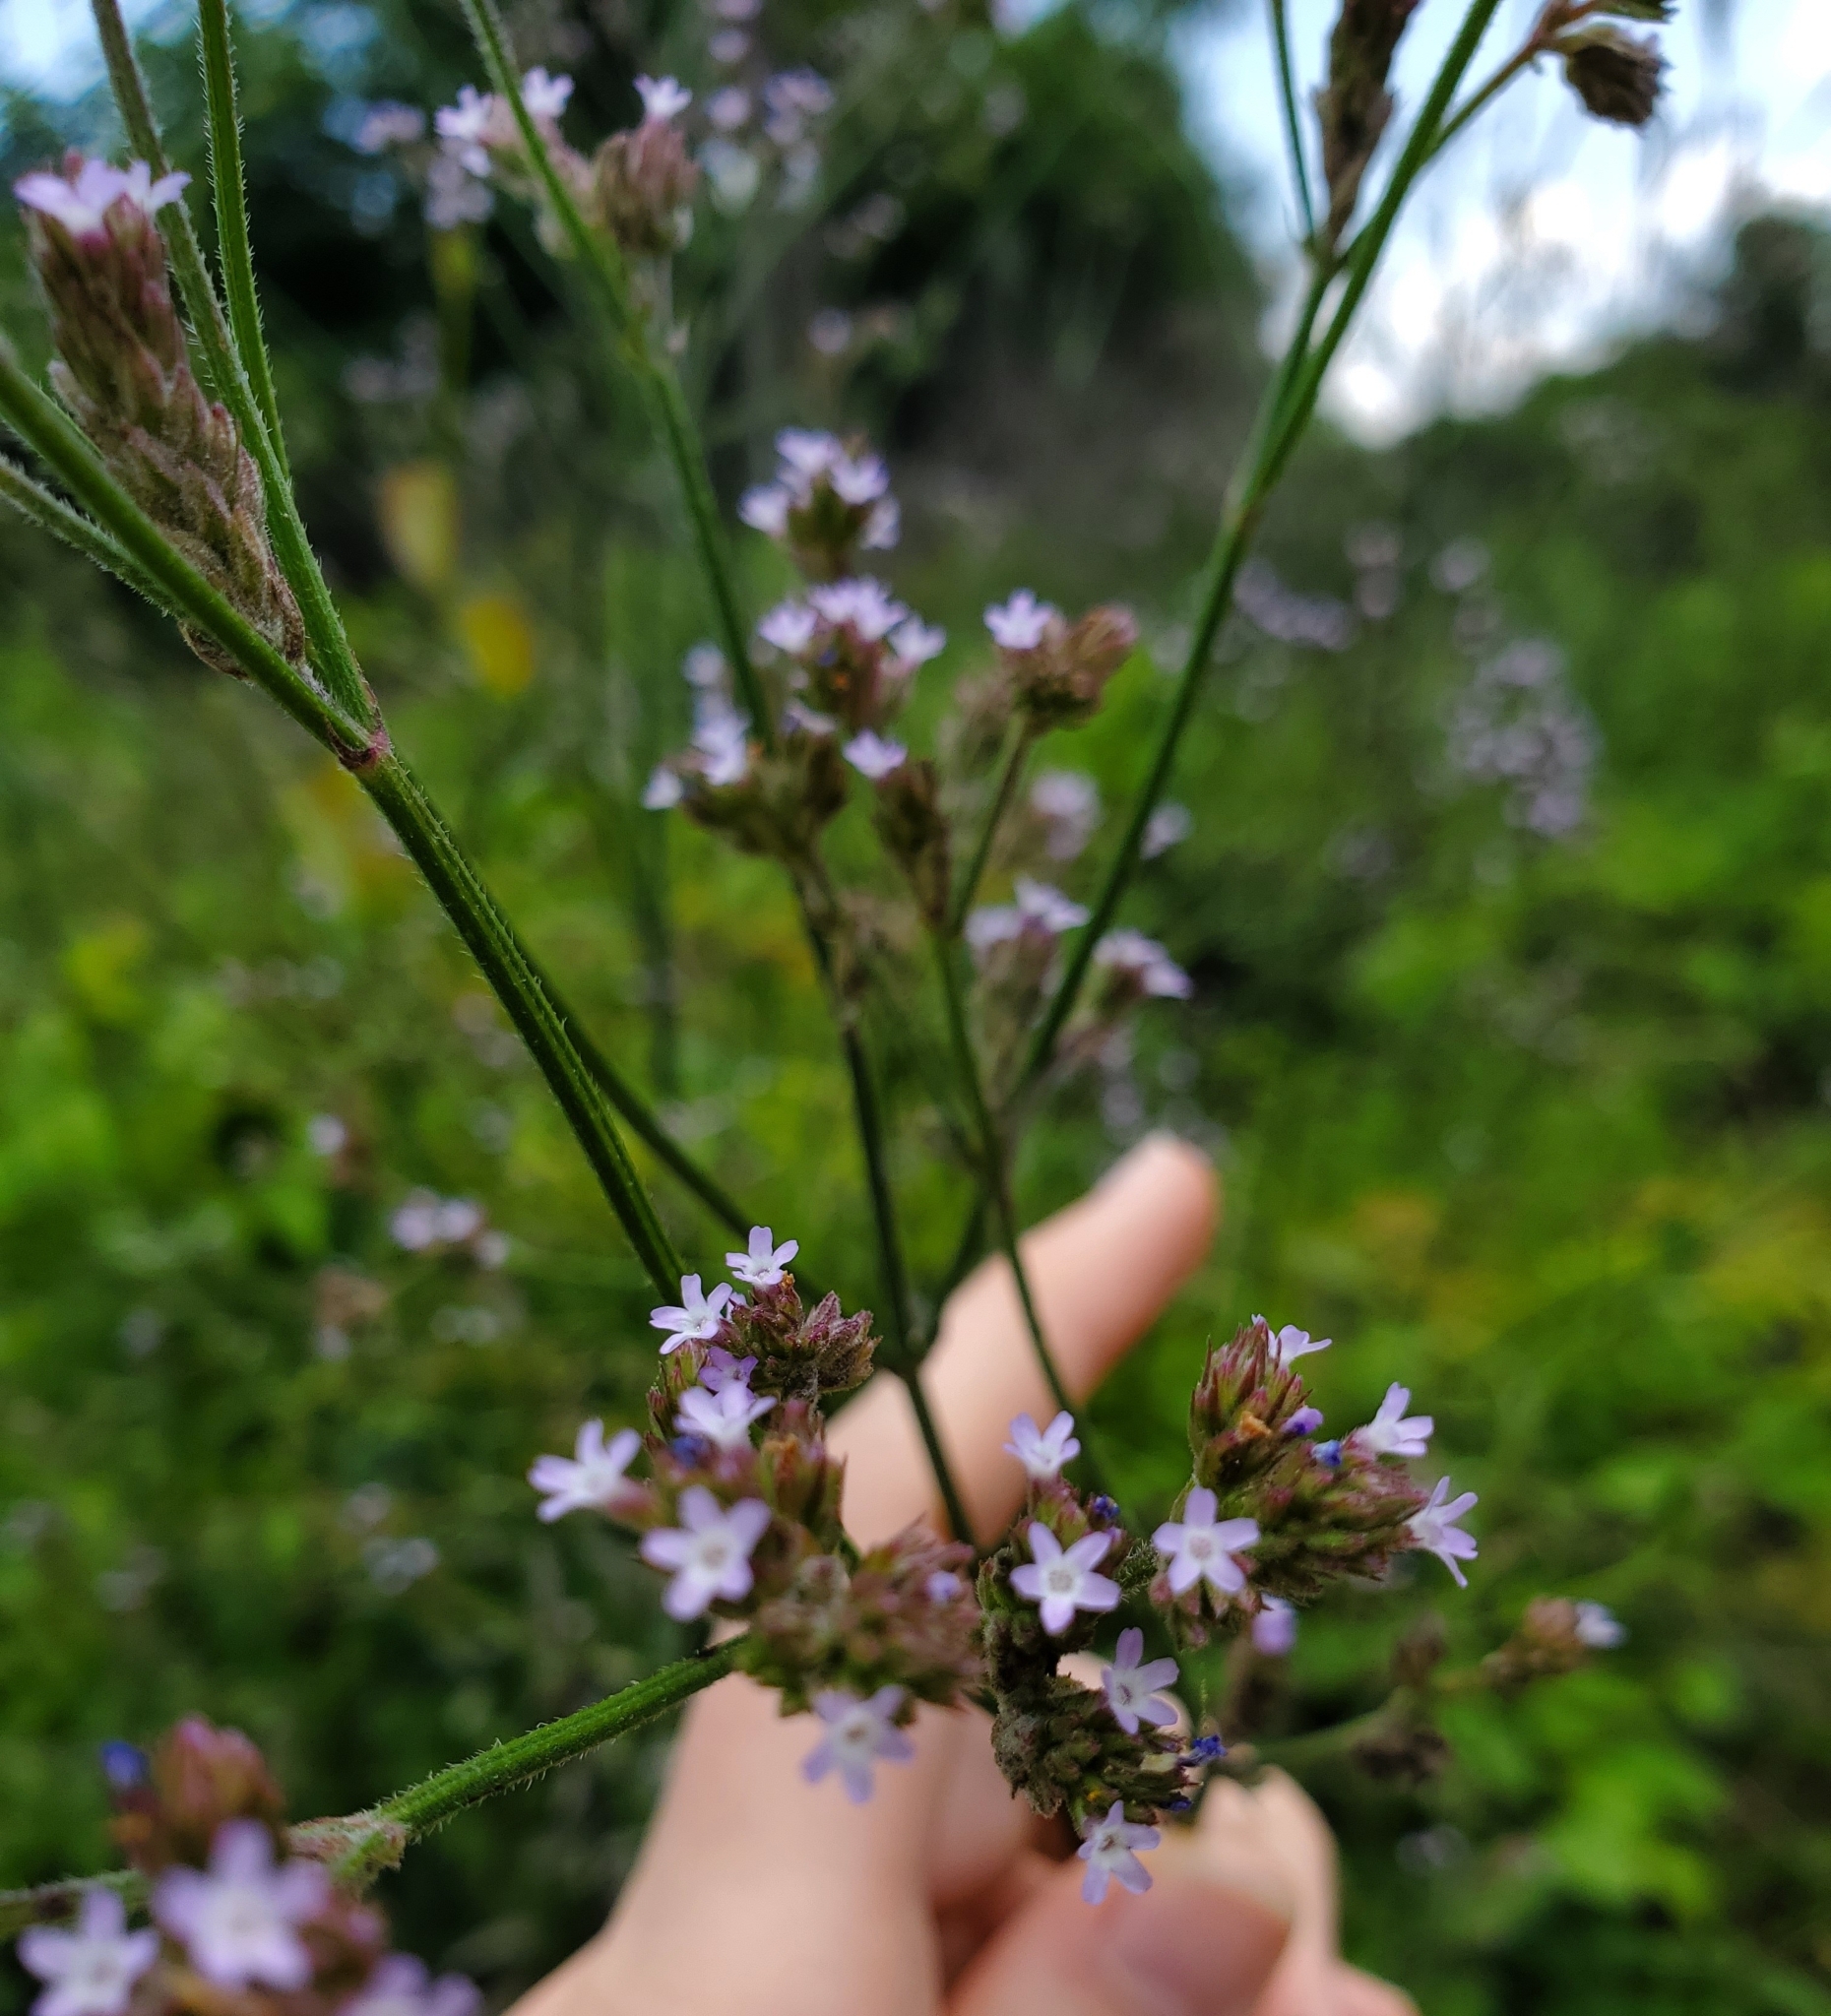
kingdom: Plantae
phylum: Tracheophyta
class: Magnoliopsida
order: Lamiales
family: Verbenaceae
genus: Verbena
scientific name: Verbena brasiliensis
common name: Brazilian vervain
